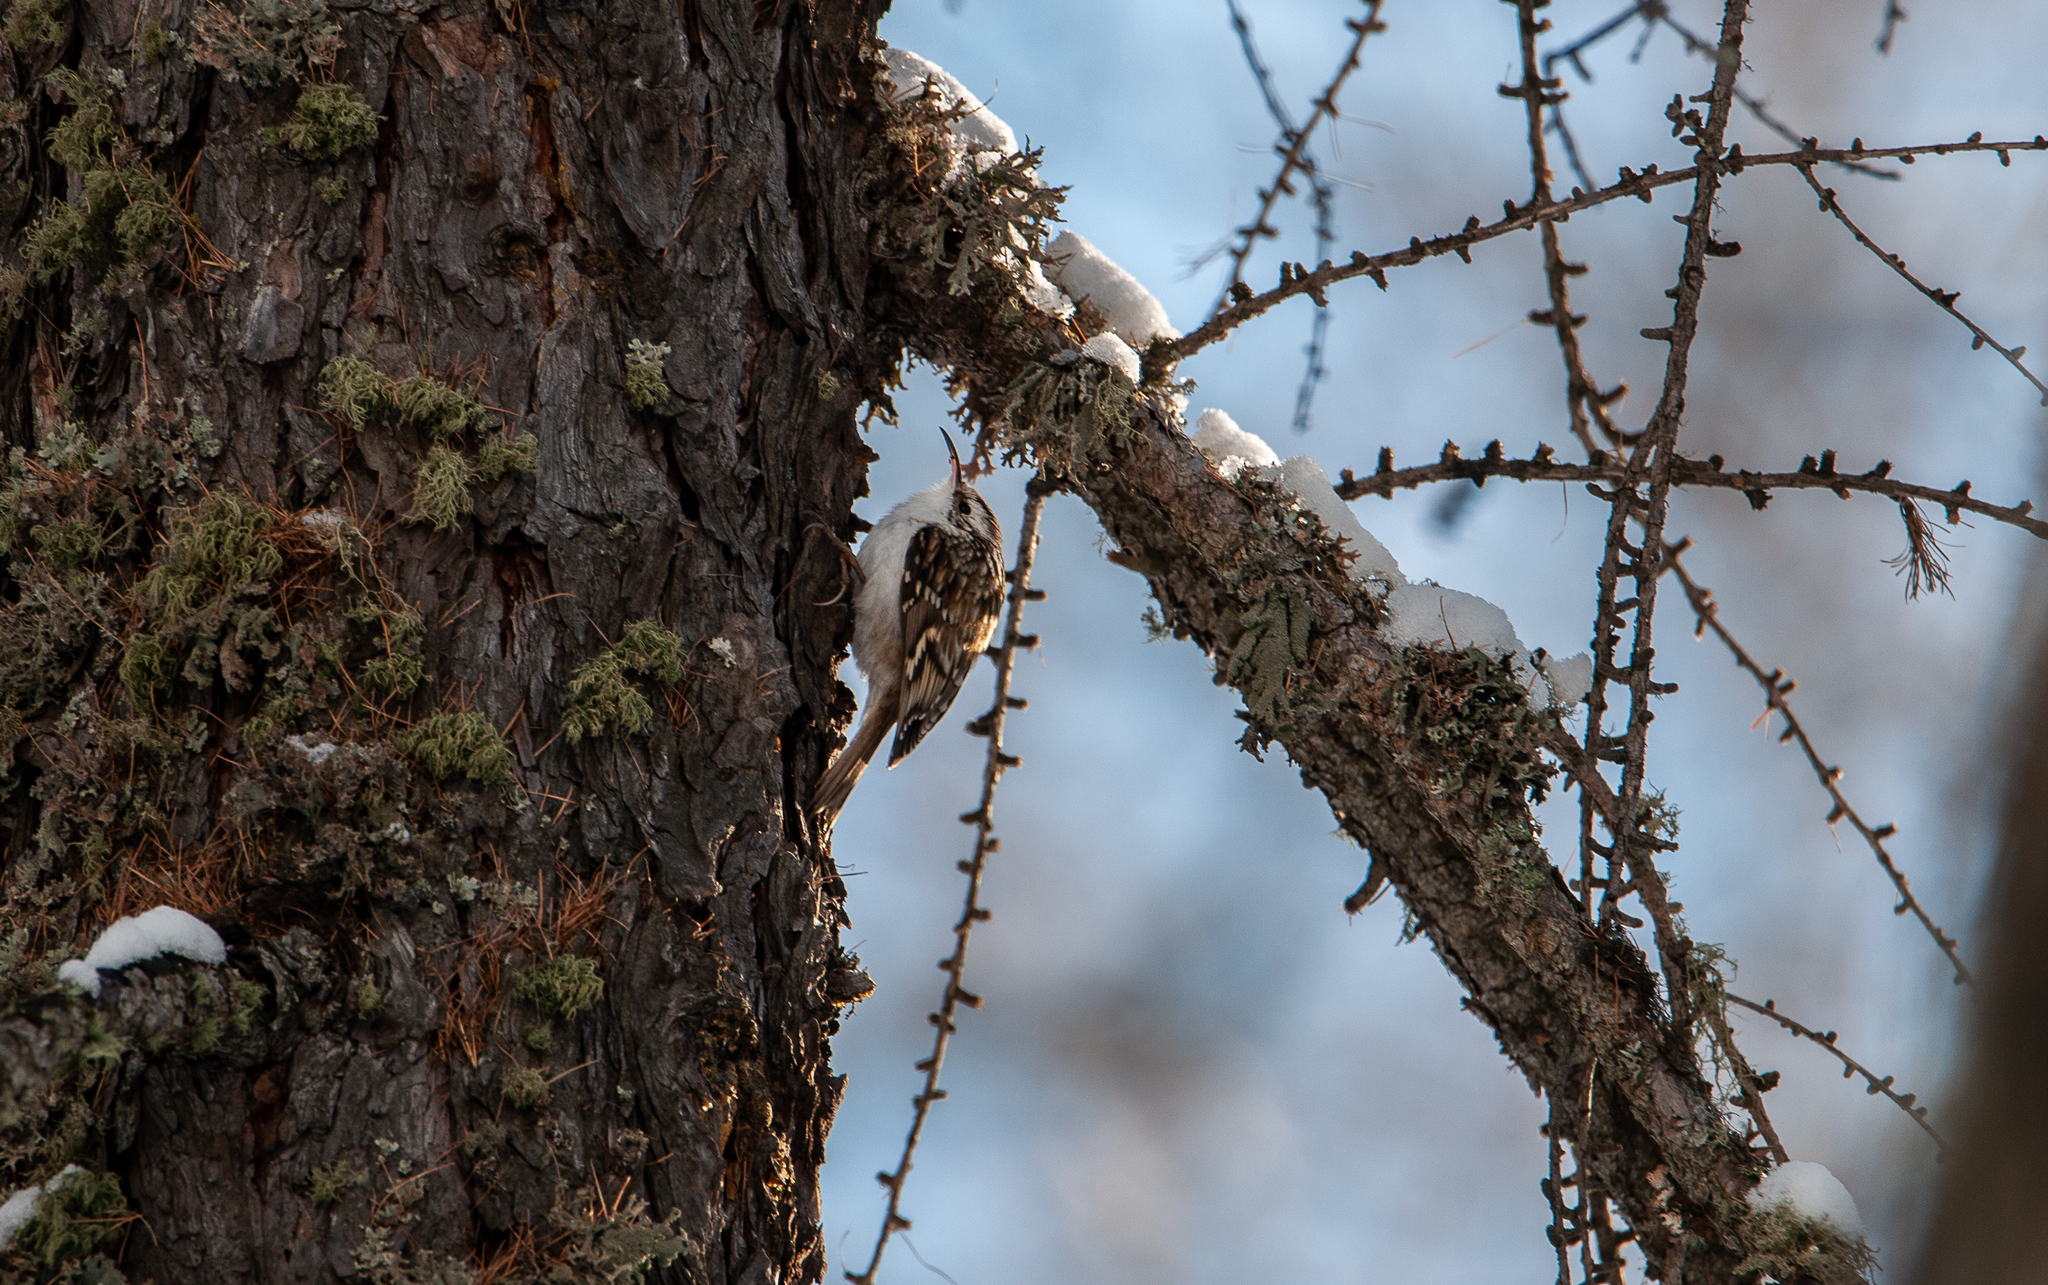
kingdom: Animalia
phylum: Chordata
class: Aves
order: Passeriformes
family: Certhiidae
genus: Certhia
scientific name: Certhia familiaris
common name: Eurasian treecreeper
